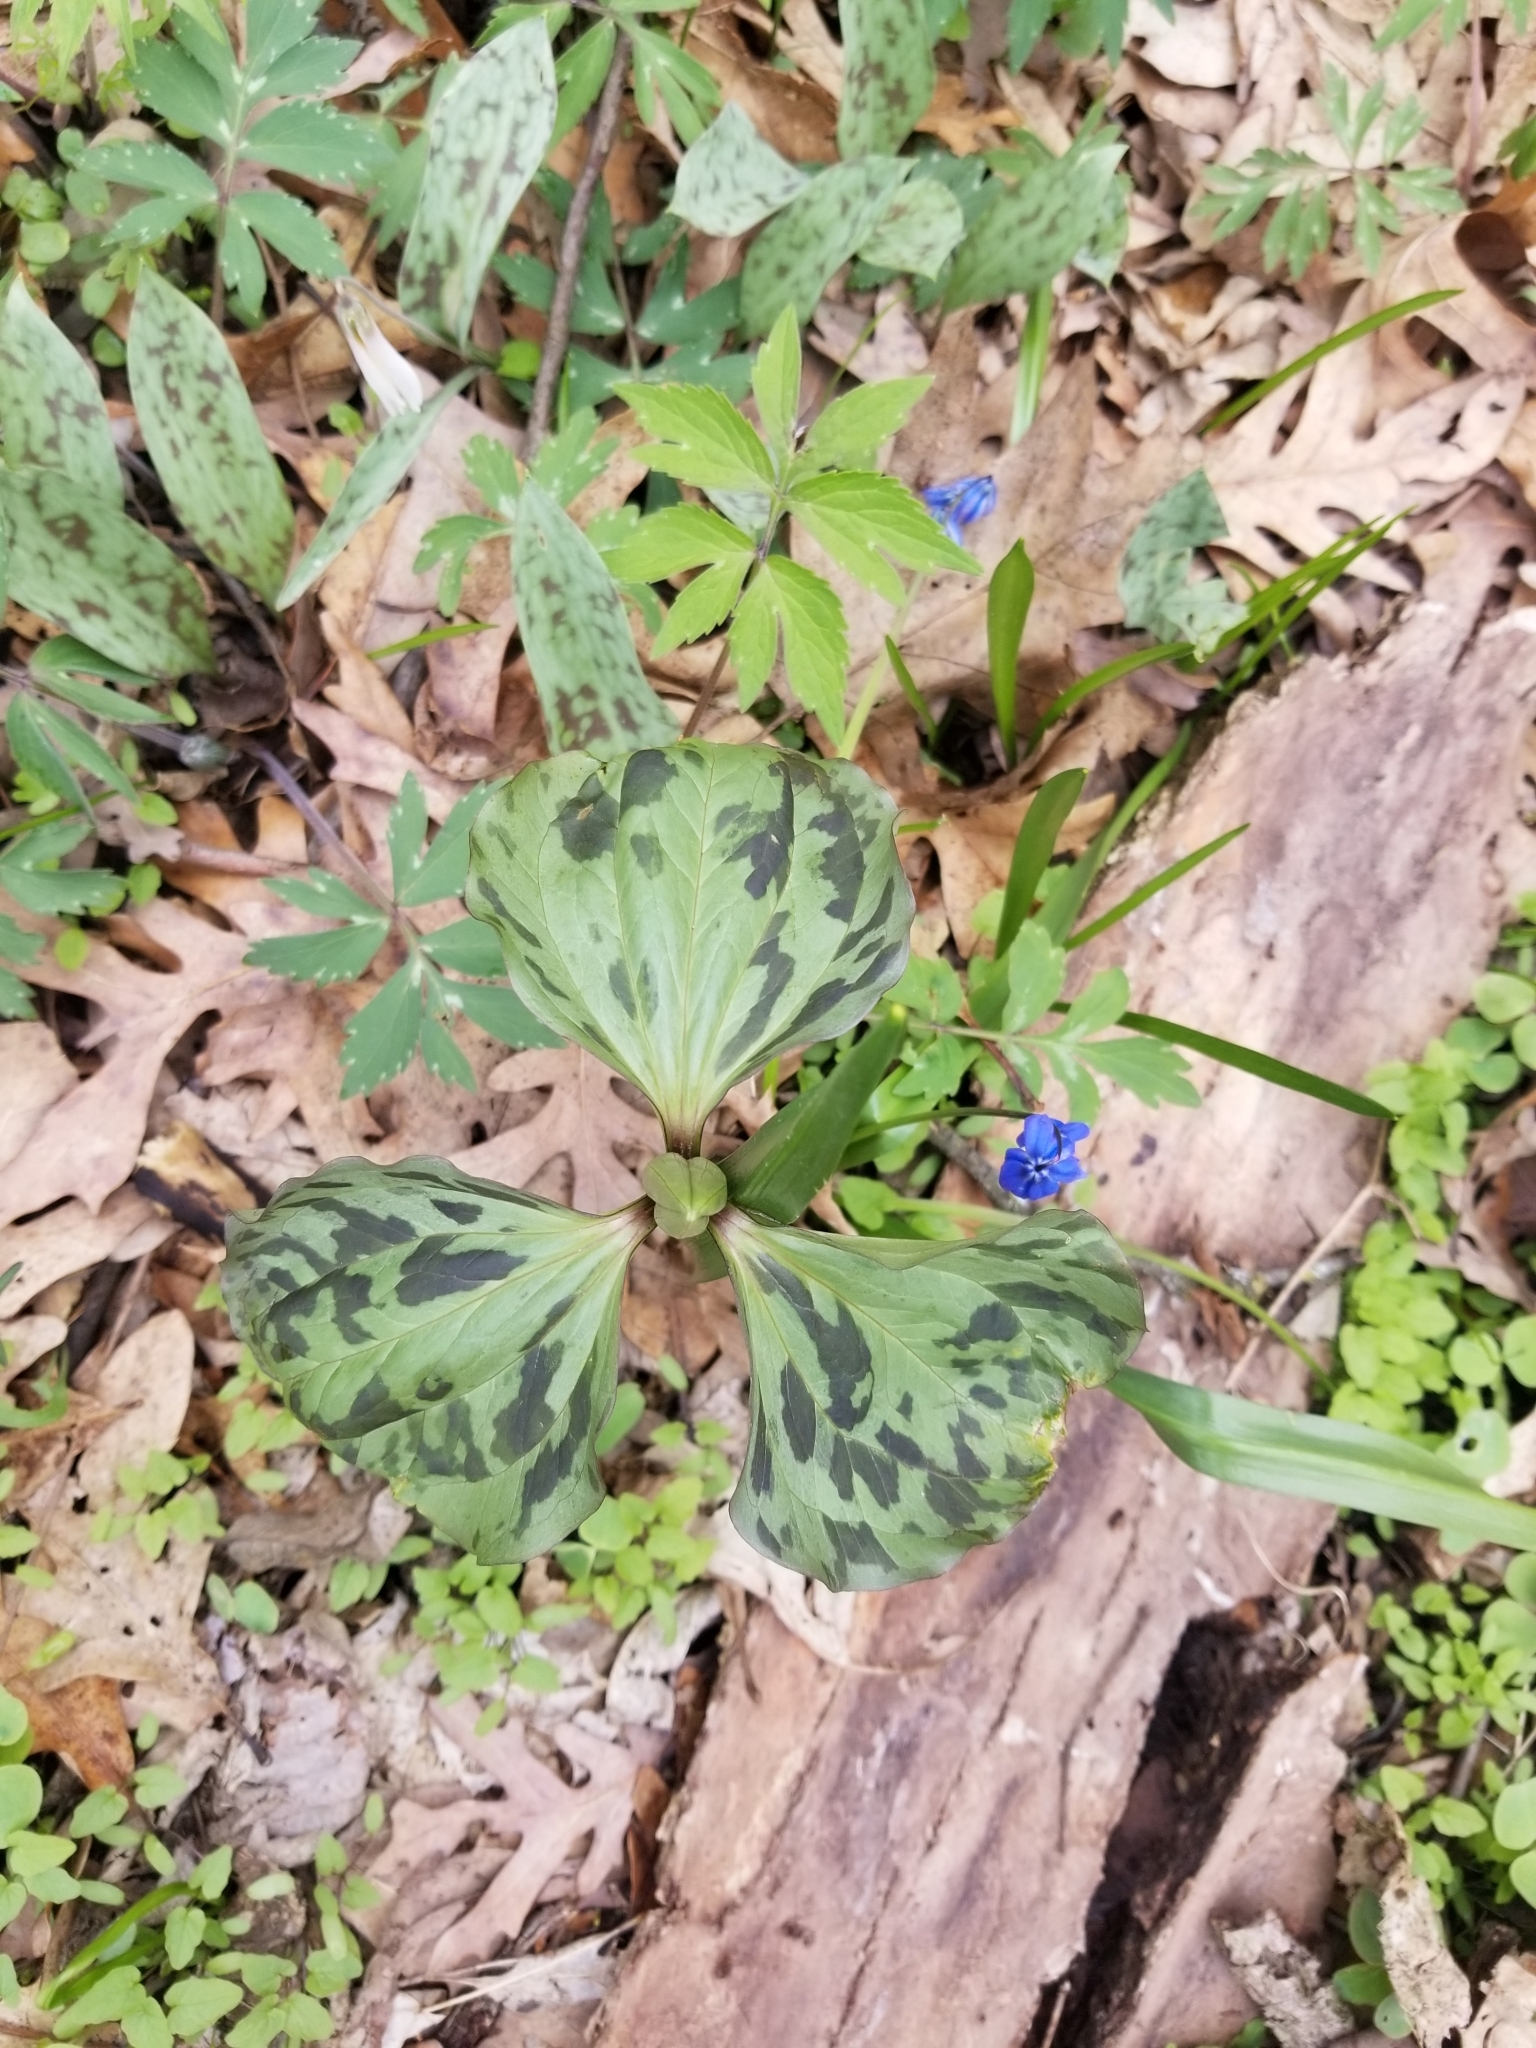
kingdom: Plantae
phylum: Tracheophyta
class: Liliopsida
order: Liliales
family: Melanthiaceae
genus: Trillium
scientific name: Trillium recurvatum
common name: Bloody butcher
